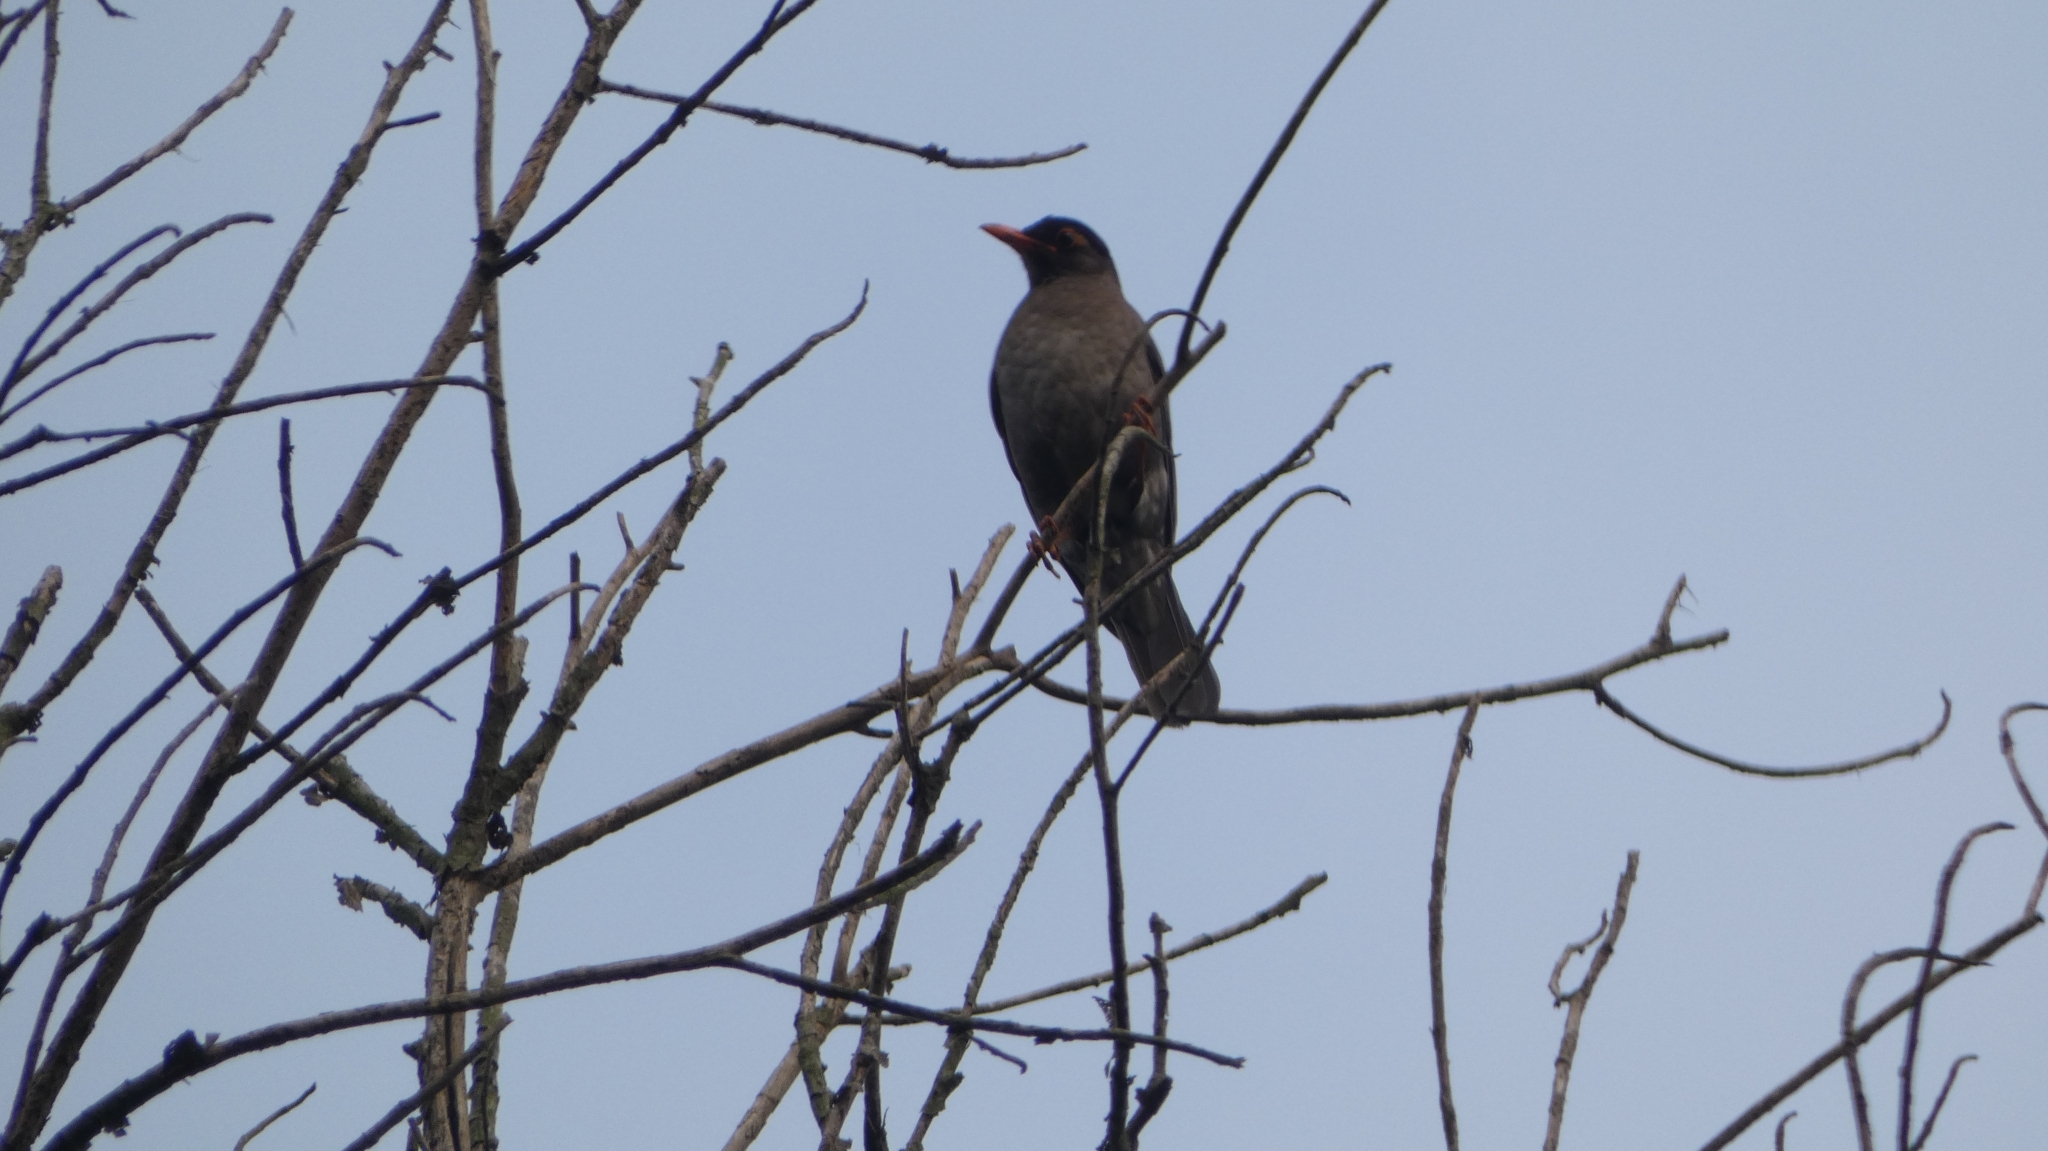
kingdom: Animalia
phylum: Chordata
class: Aves
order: Passeriformes
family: Turdidae
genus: Turdus
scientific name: Turdus simillimus
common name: Indian blackbird
